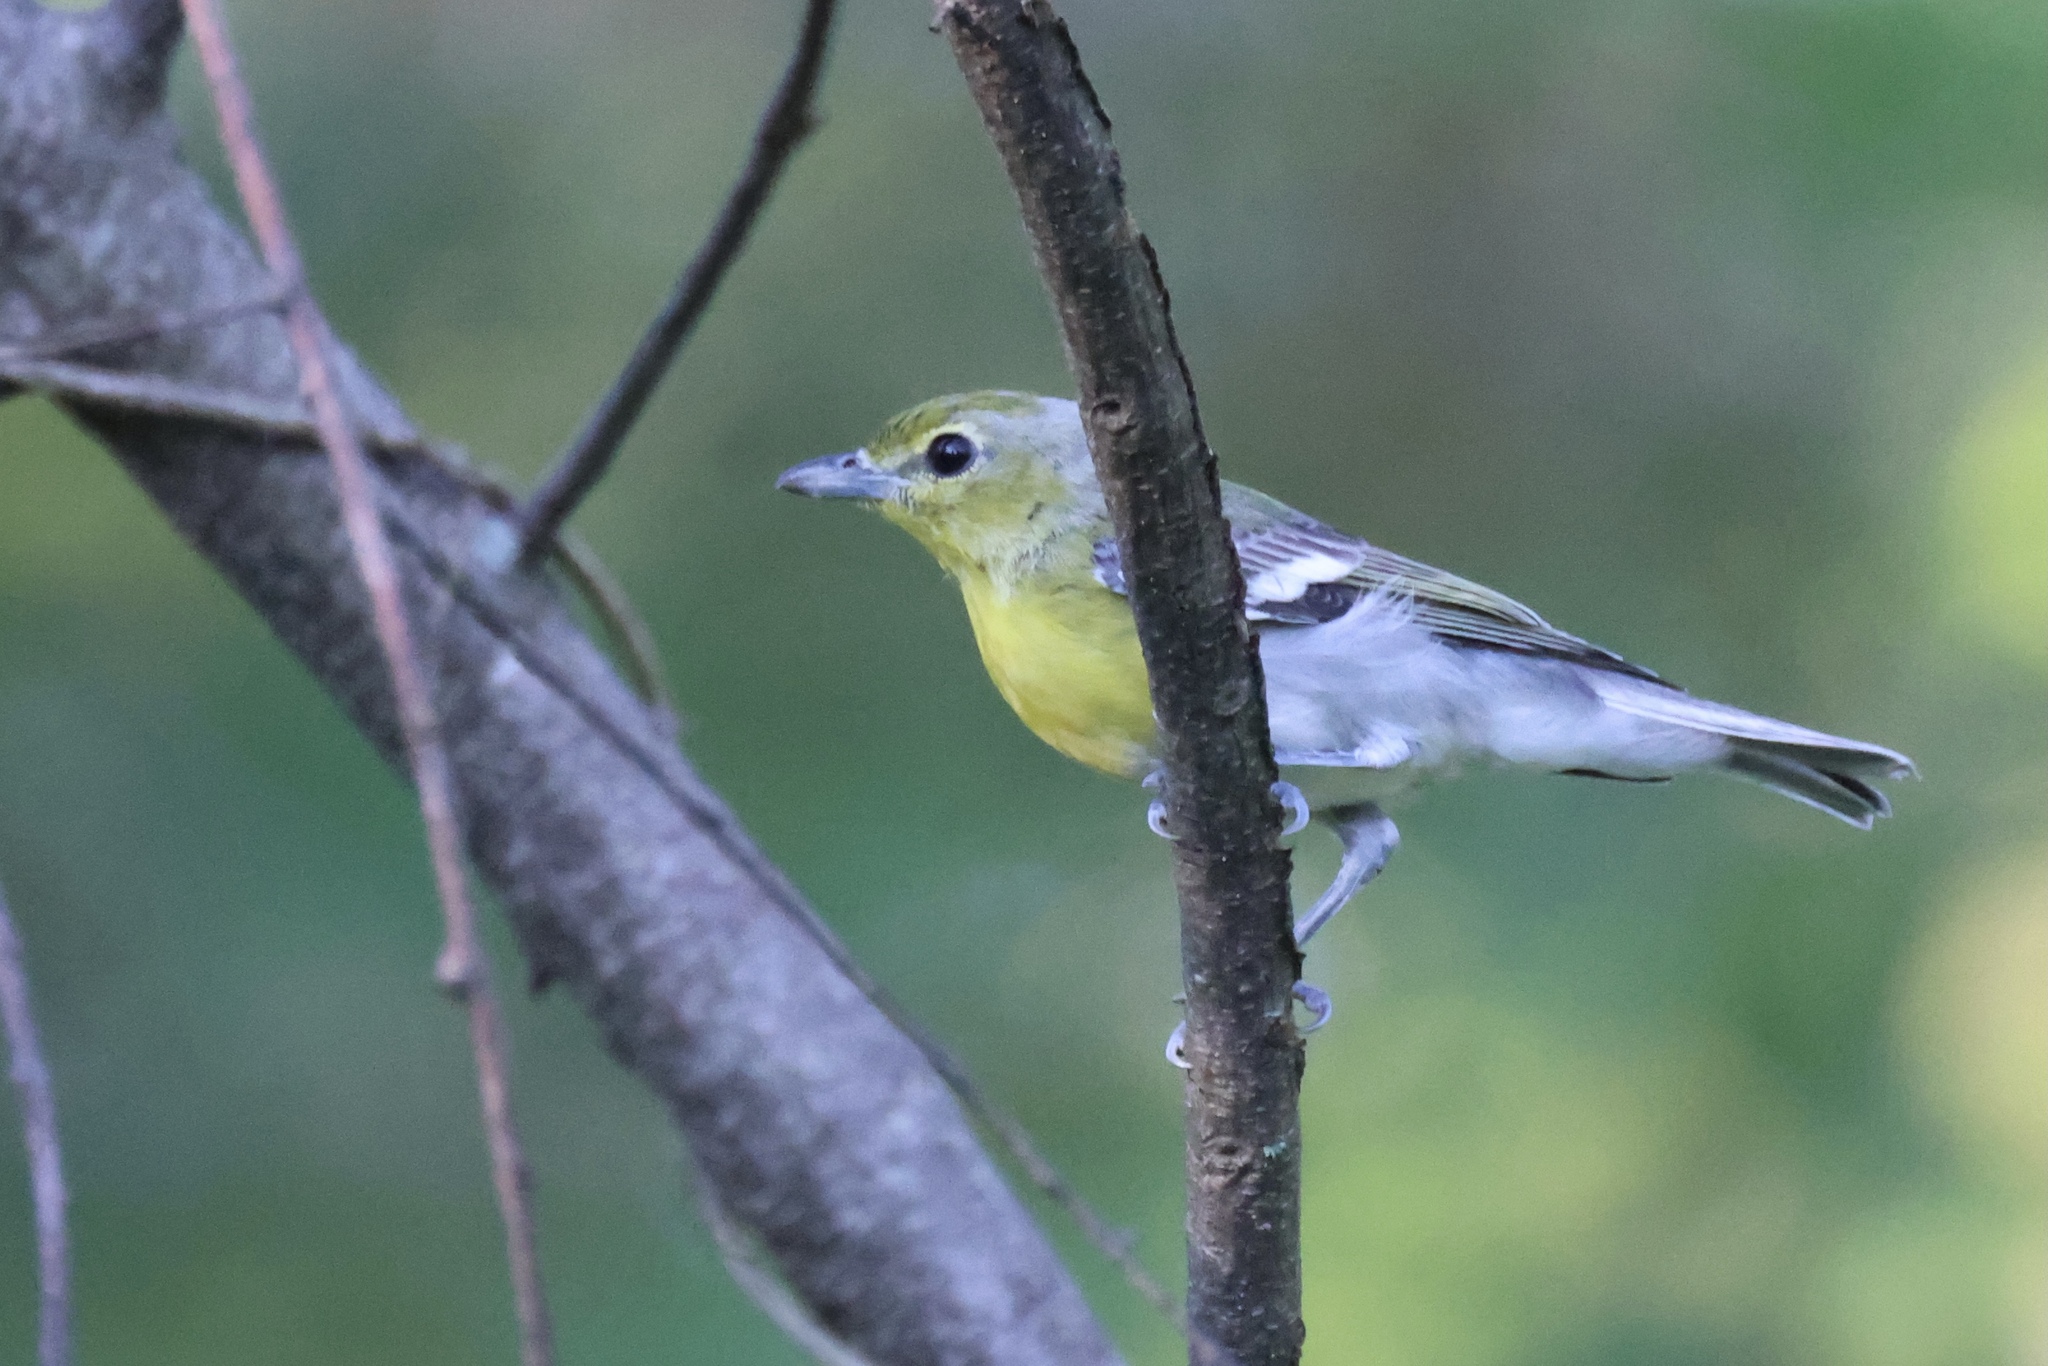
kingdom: Animalia
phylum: Chordata
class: Aves
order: Passeriformes
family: Vireonidae
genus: Vireo
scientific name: Vireo flavifrons
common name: Yellow-throated vireo
